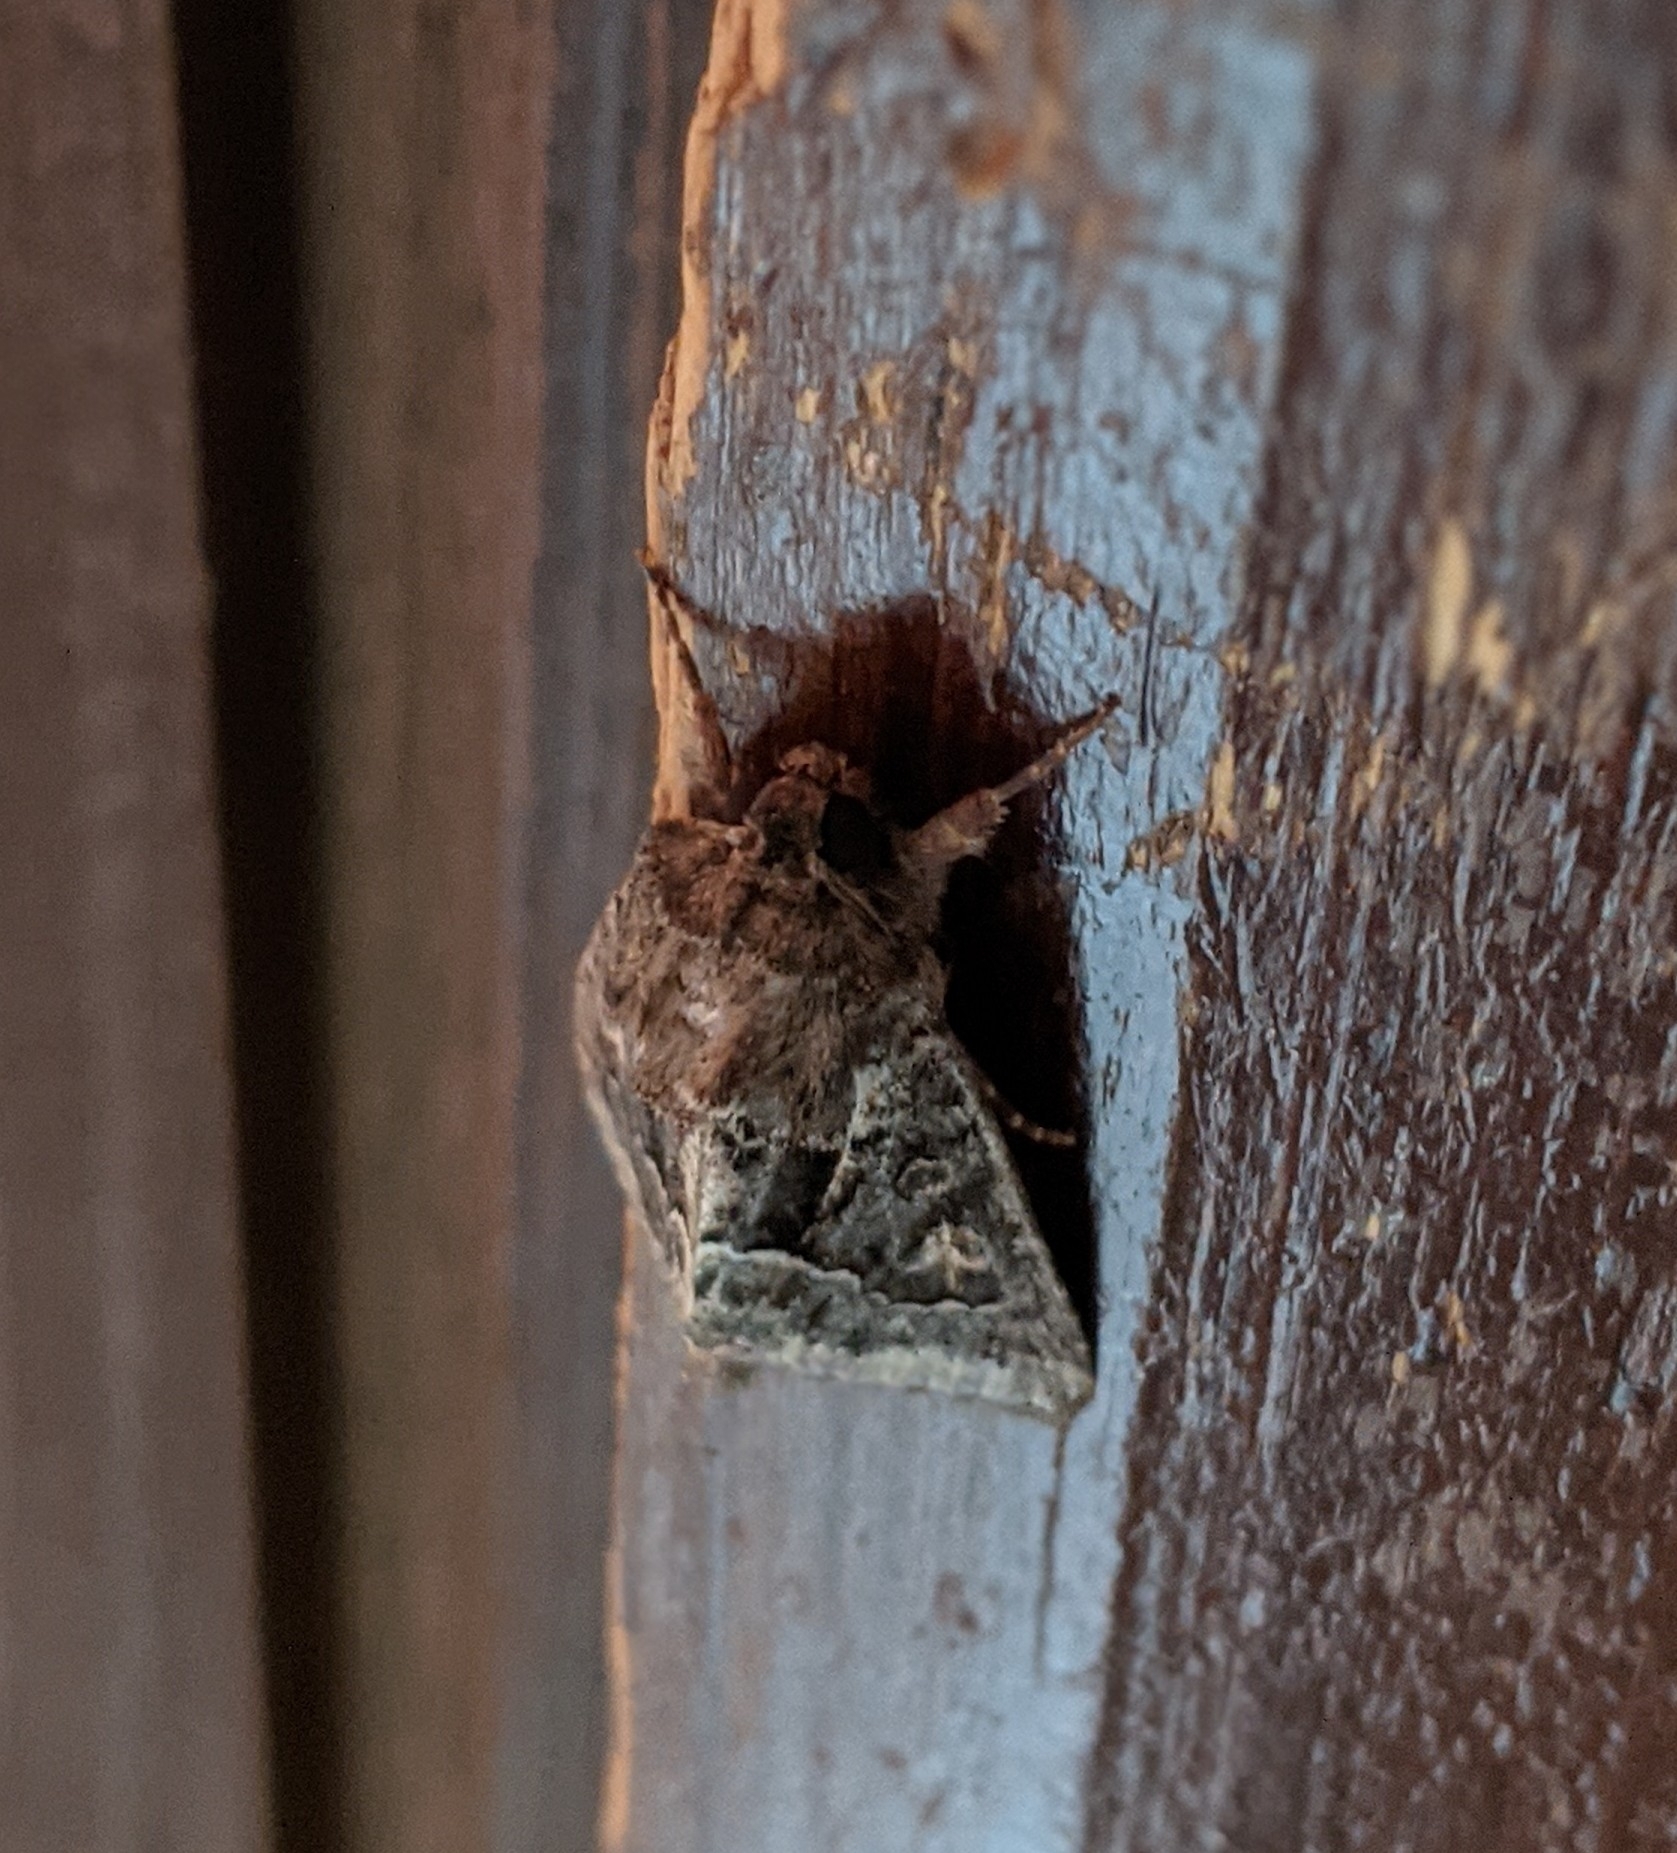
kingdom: Animalia
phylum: Arthropoda
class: Insecta
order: Lepidoptera
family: Noctuidae
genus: Thalpophila
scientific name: Thalpophila matura
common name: Straw underwing
